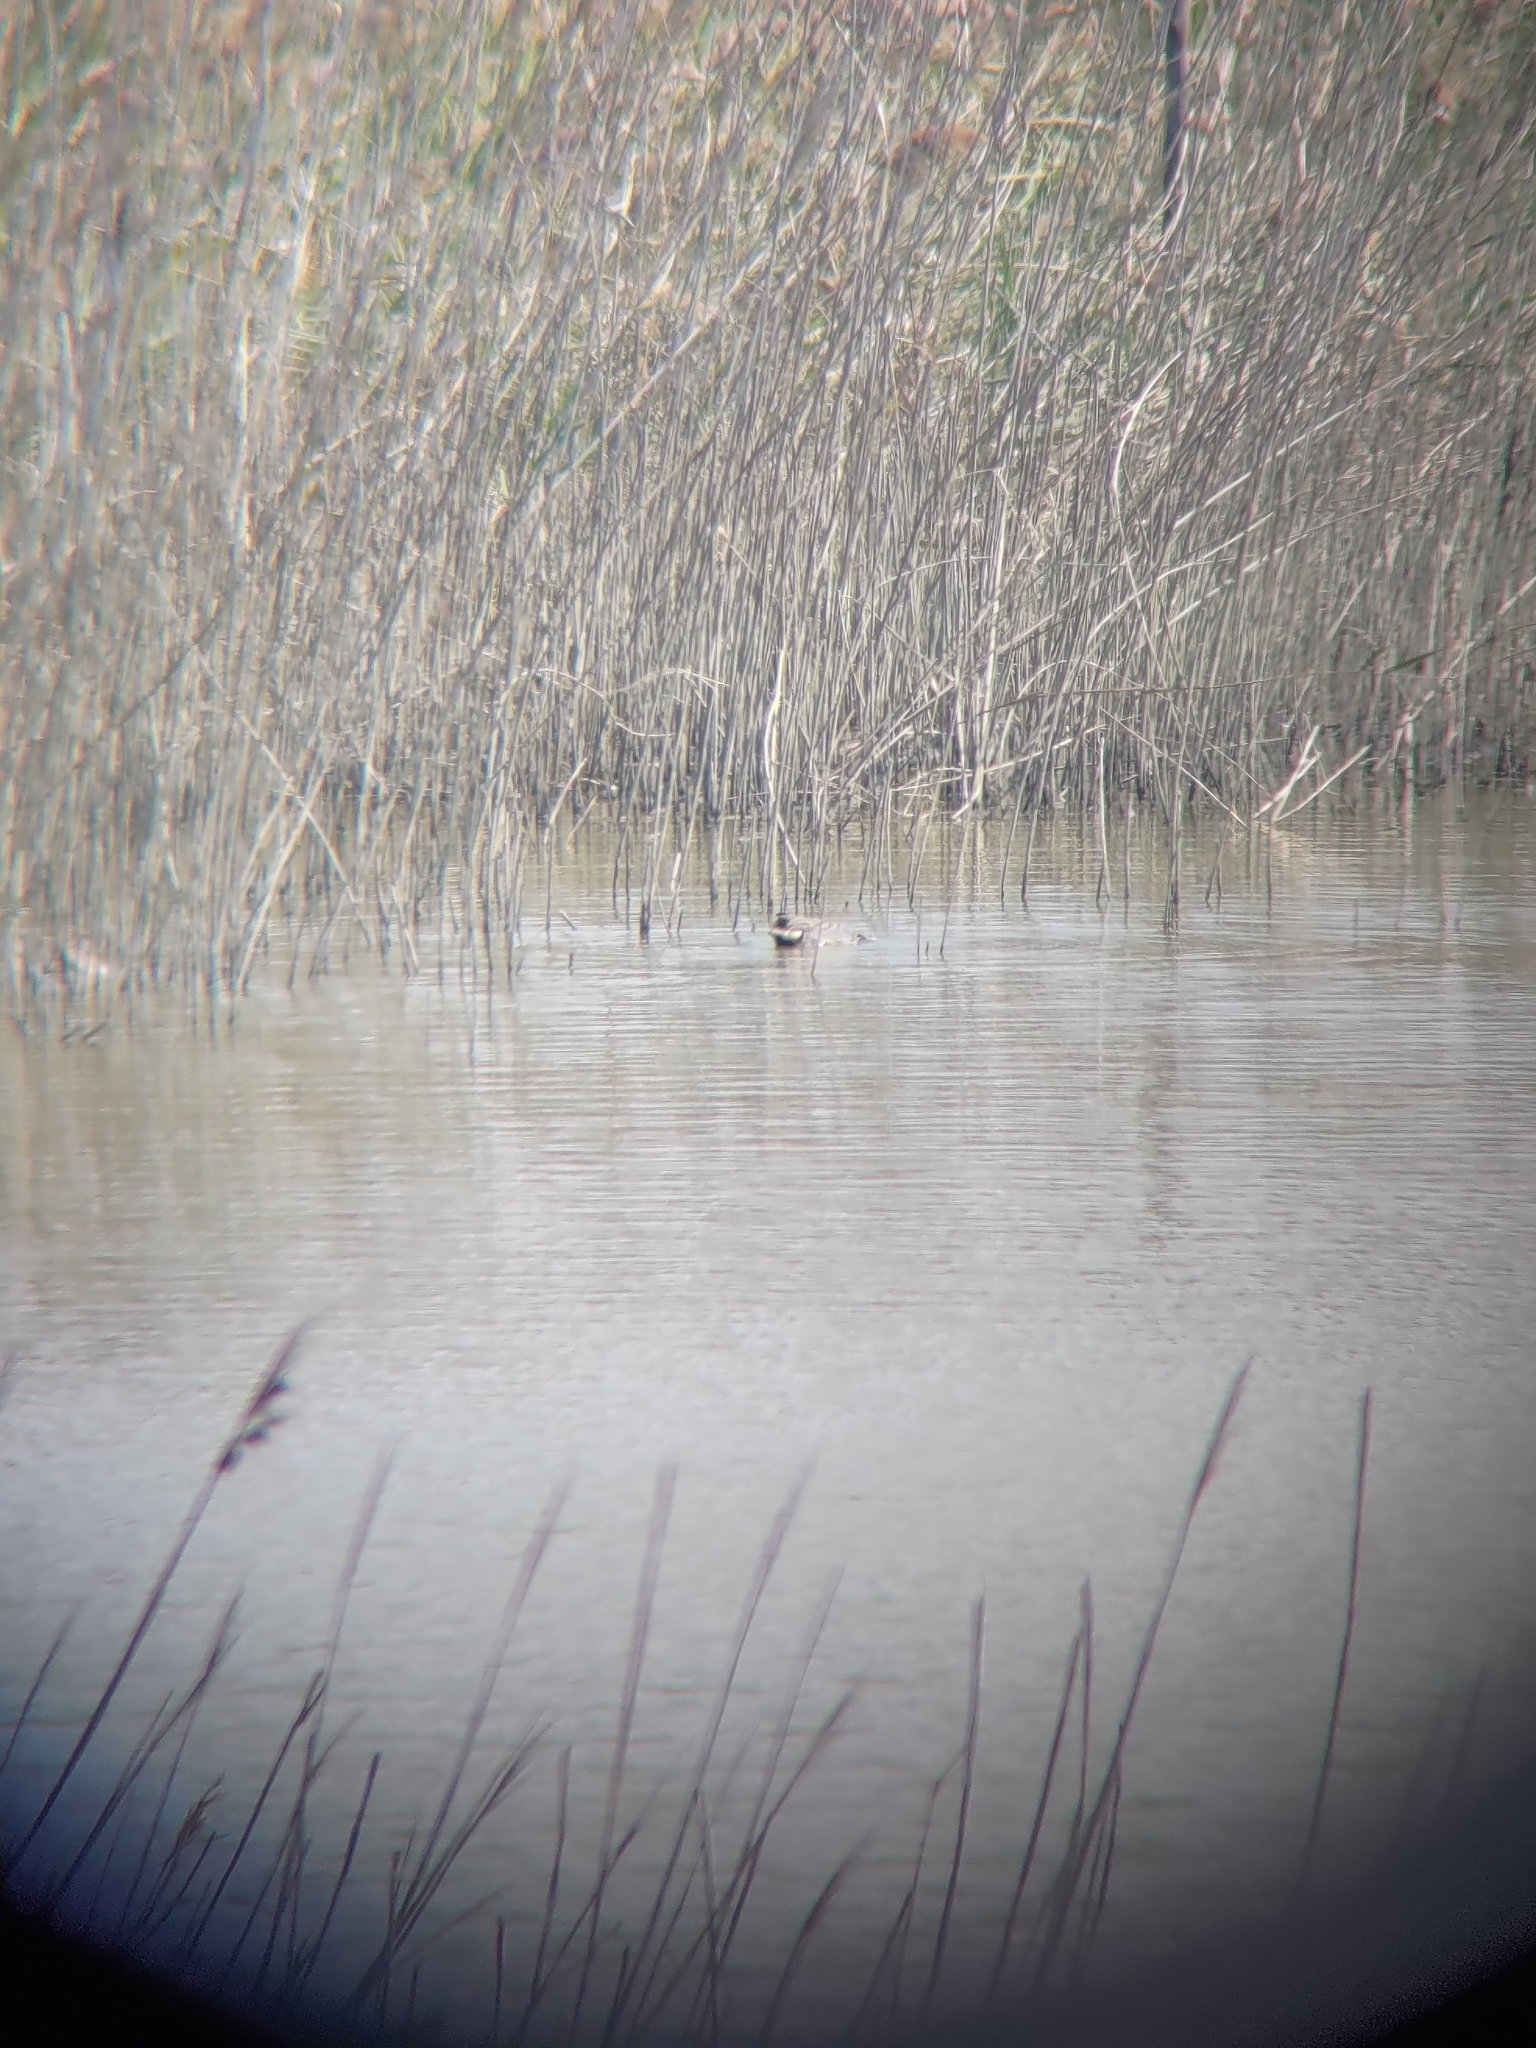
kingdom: Animalia
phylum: Chordata
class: Aves
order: Anseriformes
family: Anatidae
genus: Anas
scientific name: Anas crecca
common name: Eurasian teal
